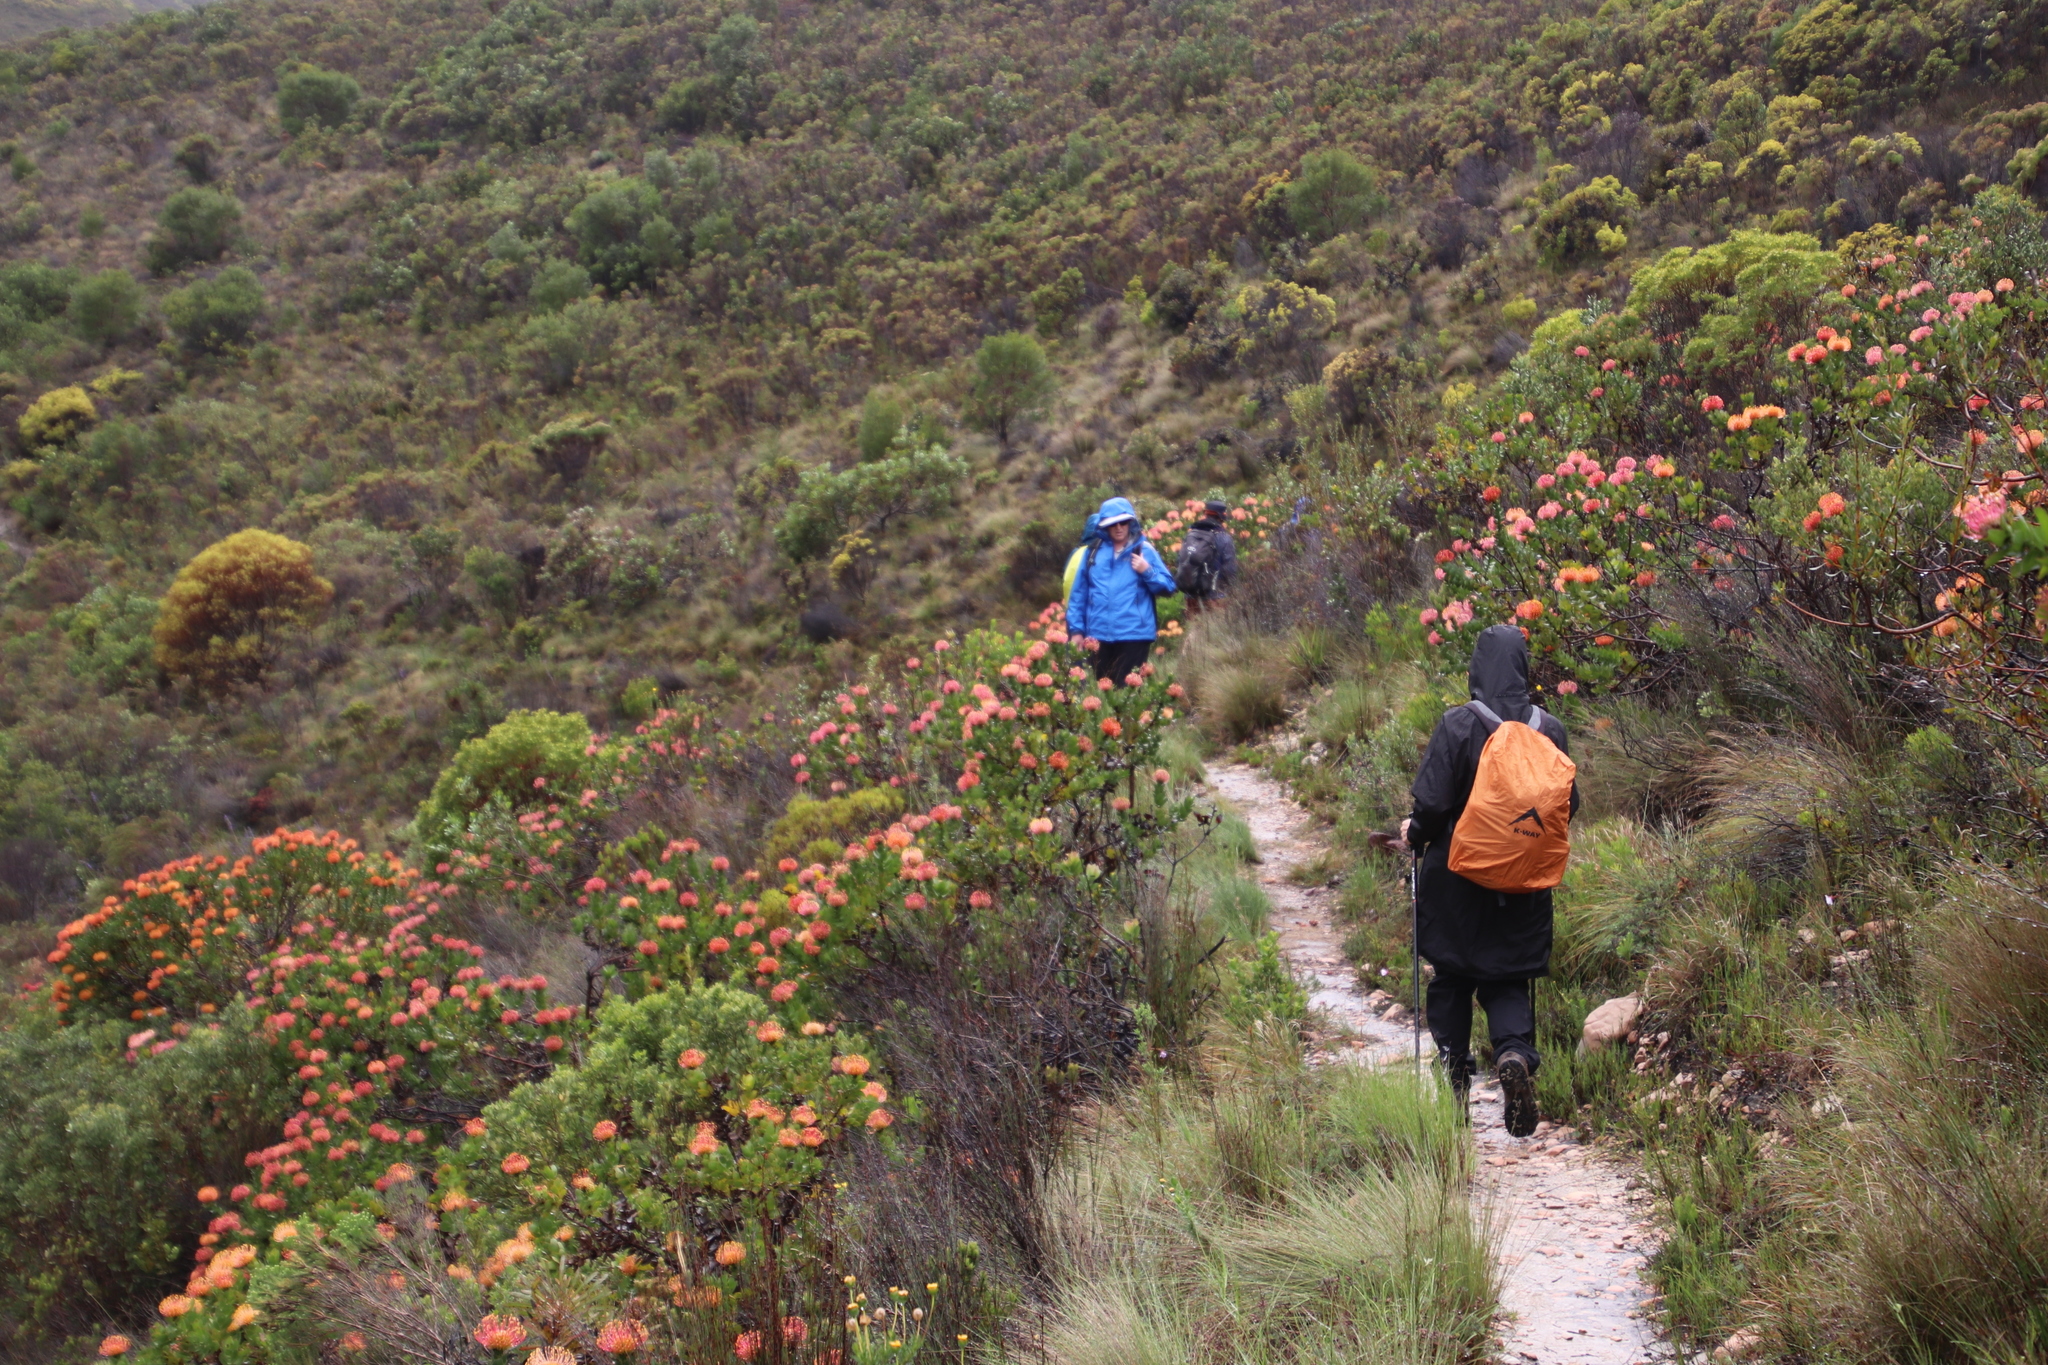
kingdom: Plantae
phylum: Tracheophyta
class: Magnoliopsida
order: Proteales
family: Proteaceae
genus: Leucospermum
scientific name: Leucospermum patersonii
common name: False tree pincushion
